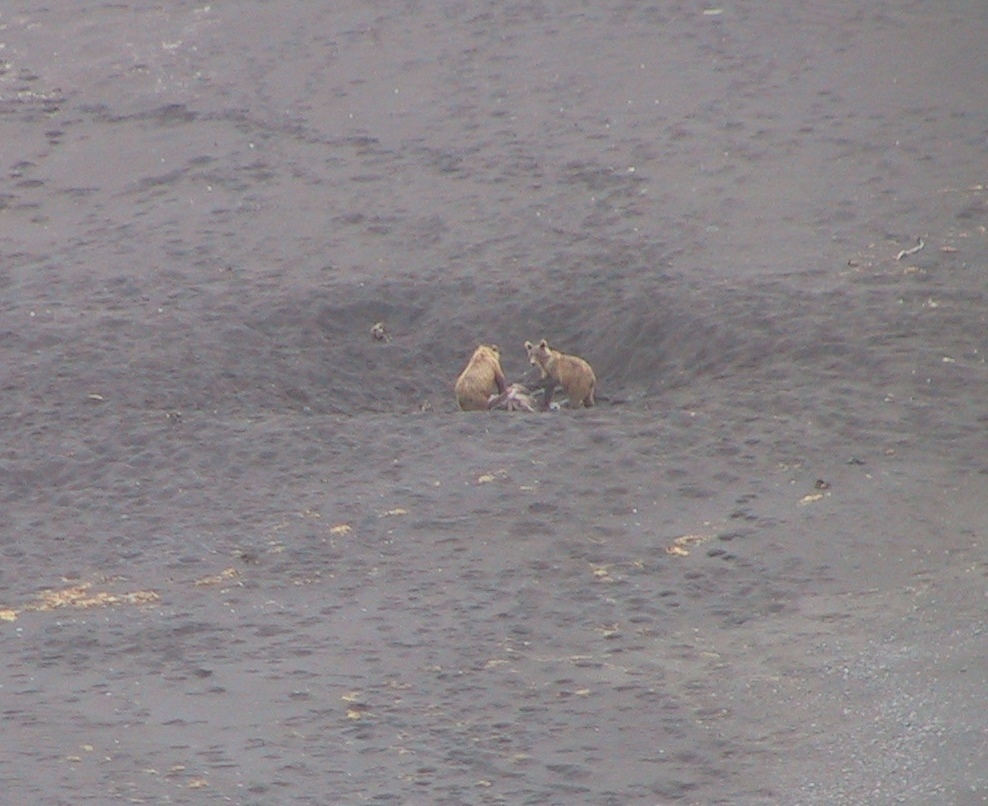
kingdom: Animalia
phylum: Chordata
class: Mammalia
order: Carnivora
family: Ursidae
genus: Ursus
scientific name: Ursus arctos
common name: Brown bear
